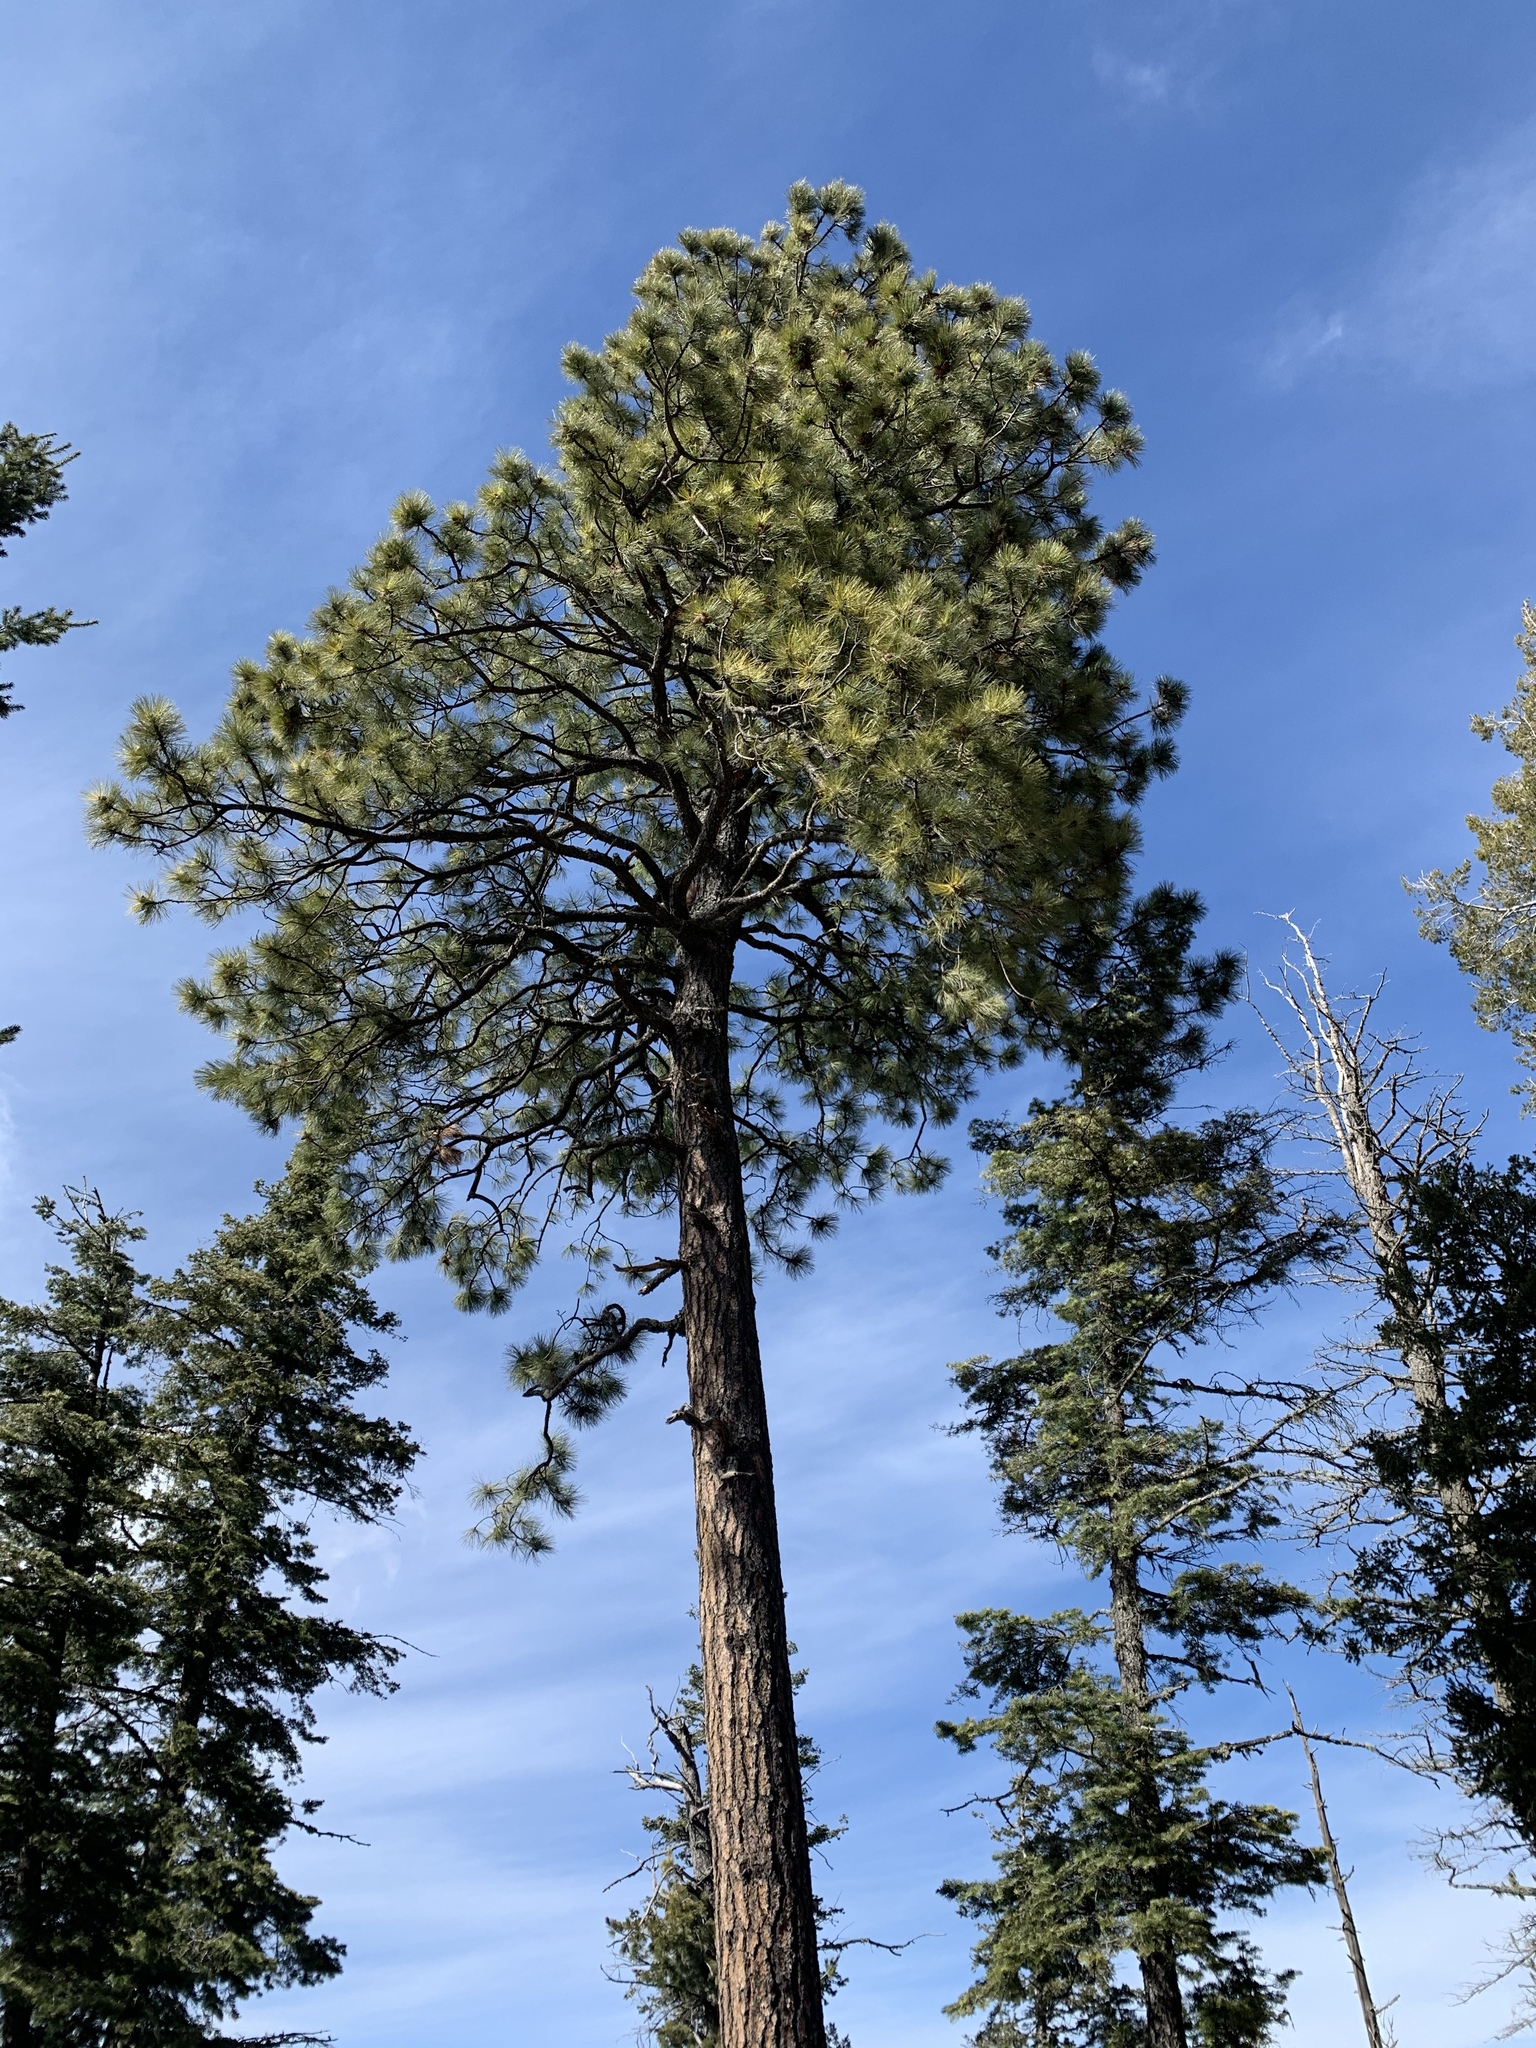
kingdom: Plantae
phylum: Tracheophyta
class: Pinopsida
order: Pinales
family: Pinaceae
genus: Pinus
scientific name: Pinus ponderosa
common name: Western yellow-pine
